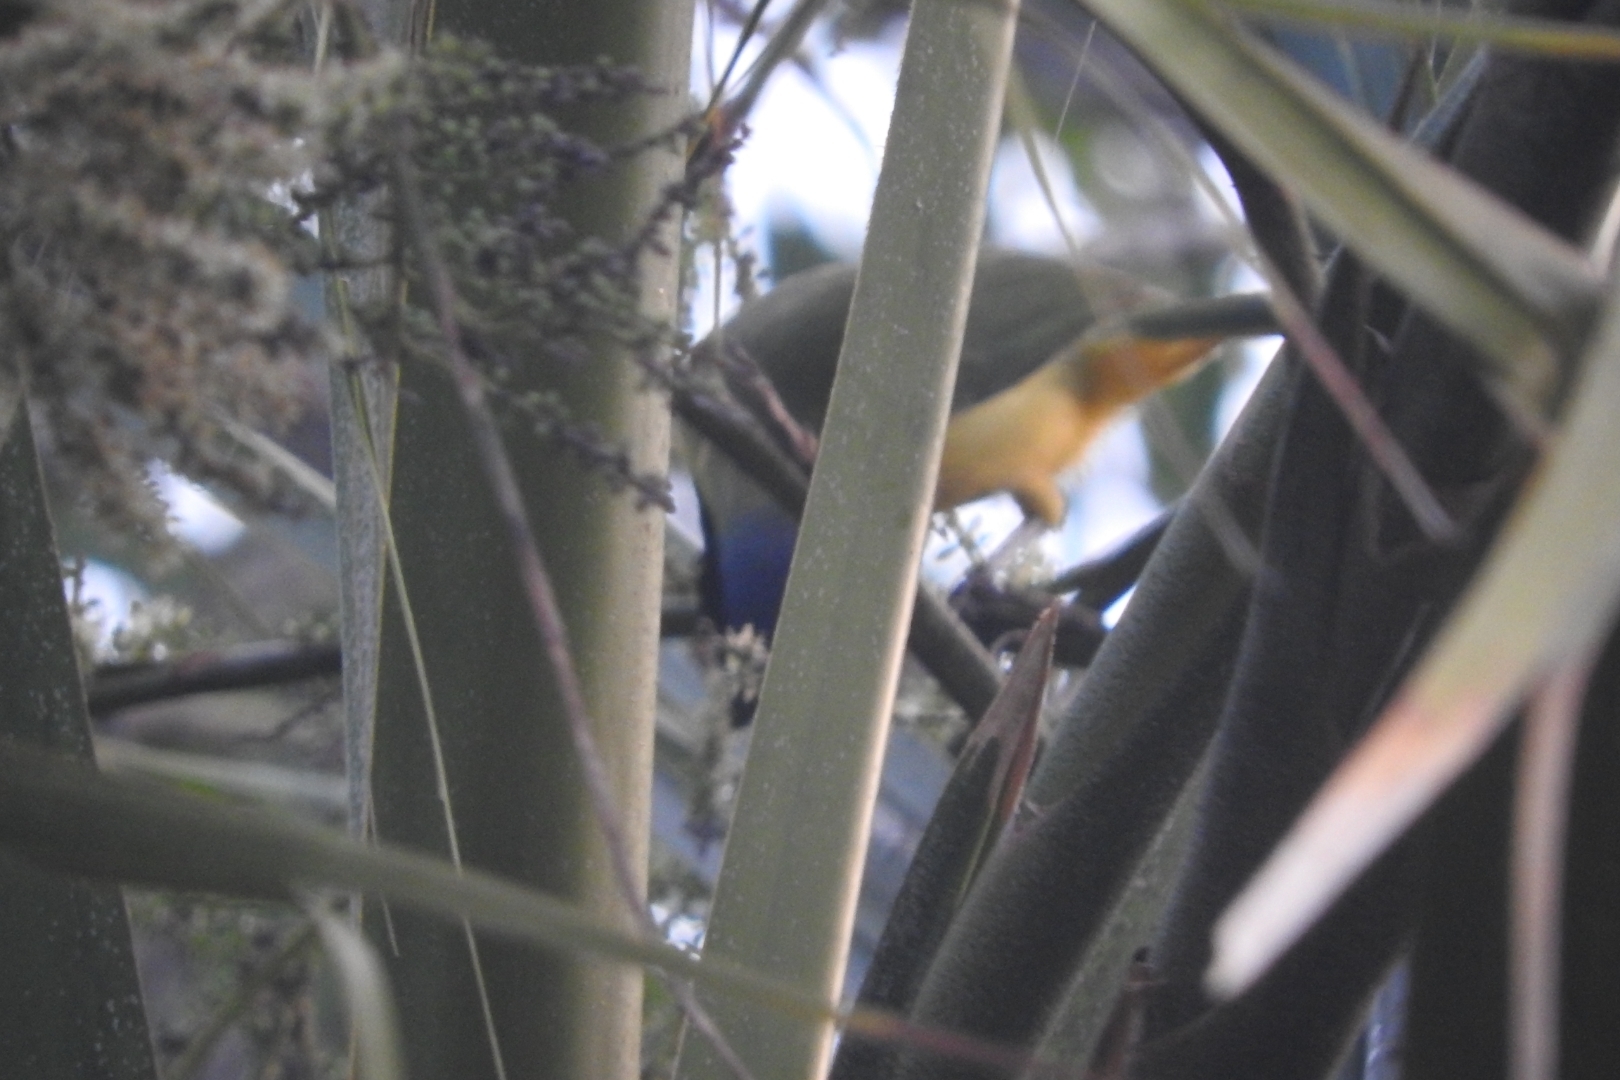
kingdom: Animalia
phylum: Chordata
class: Aves
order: Passeriformes
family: Corvidae
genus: Cyanocorax
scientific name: Cyanocorax yncas
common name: Green jay
